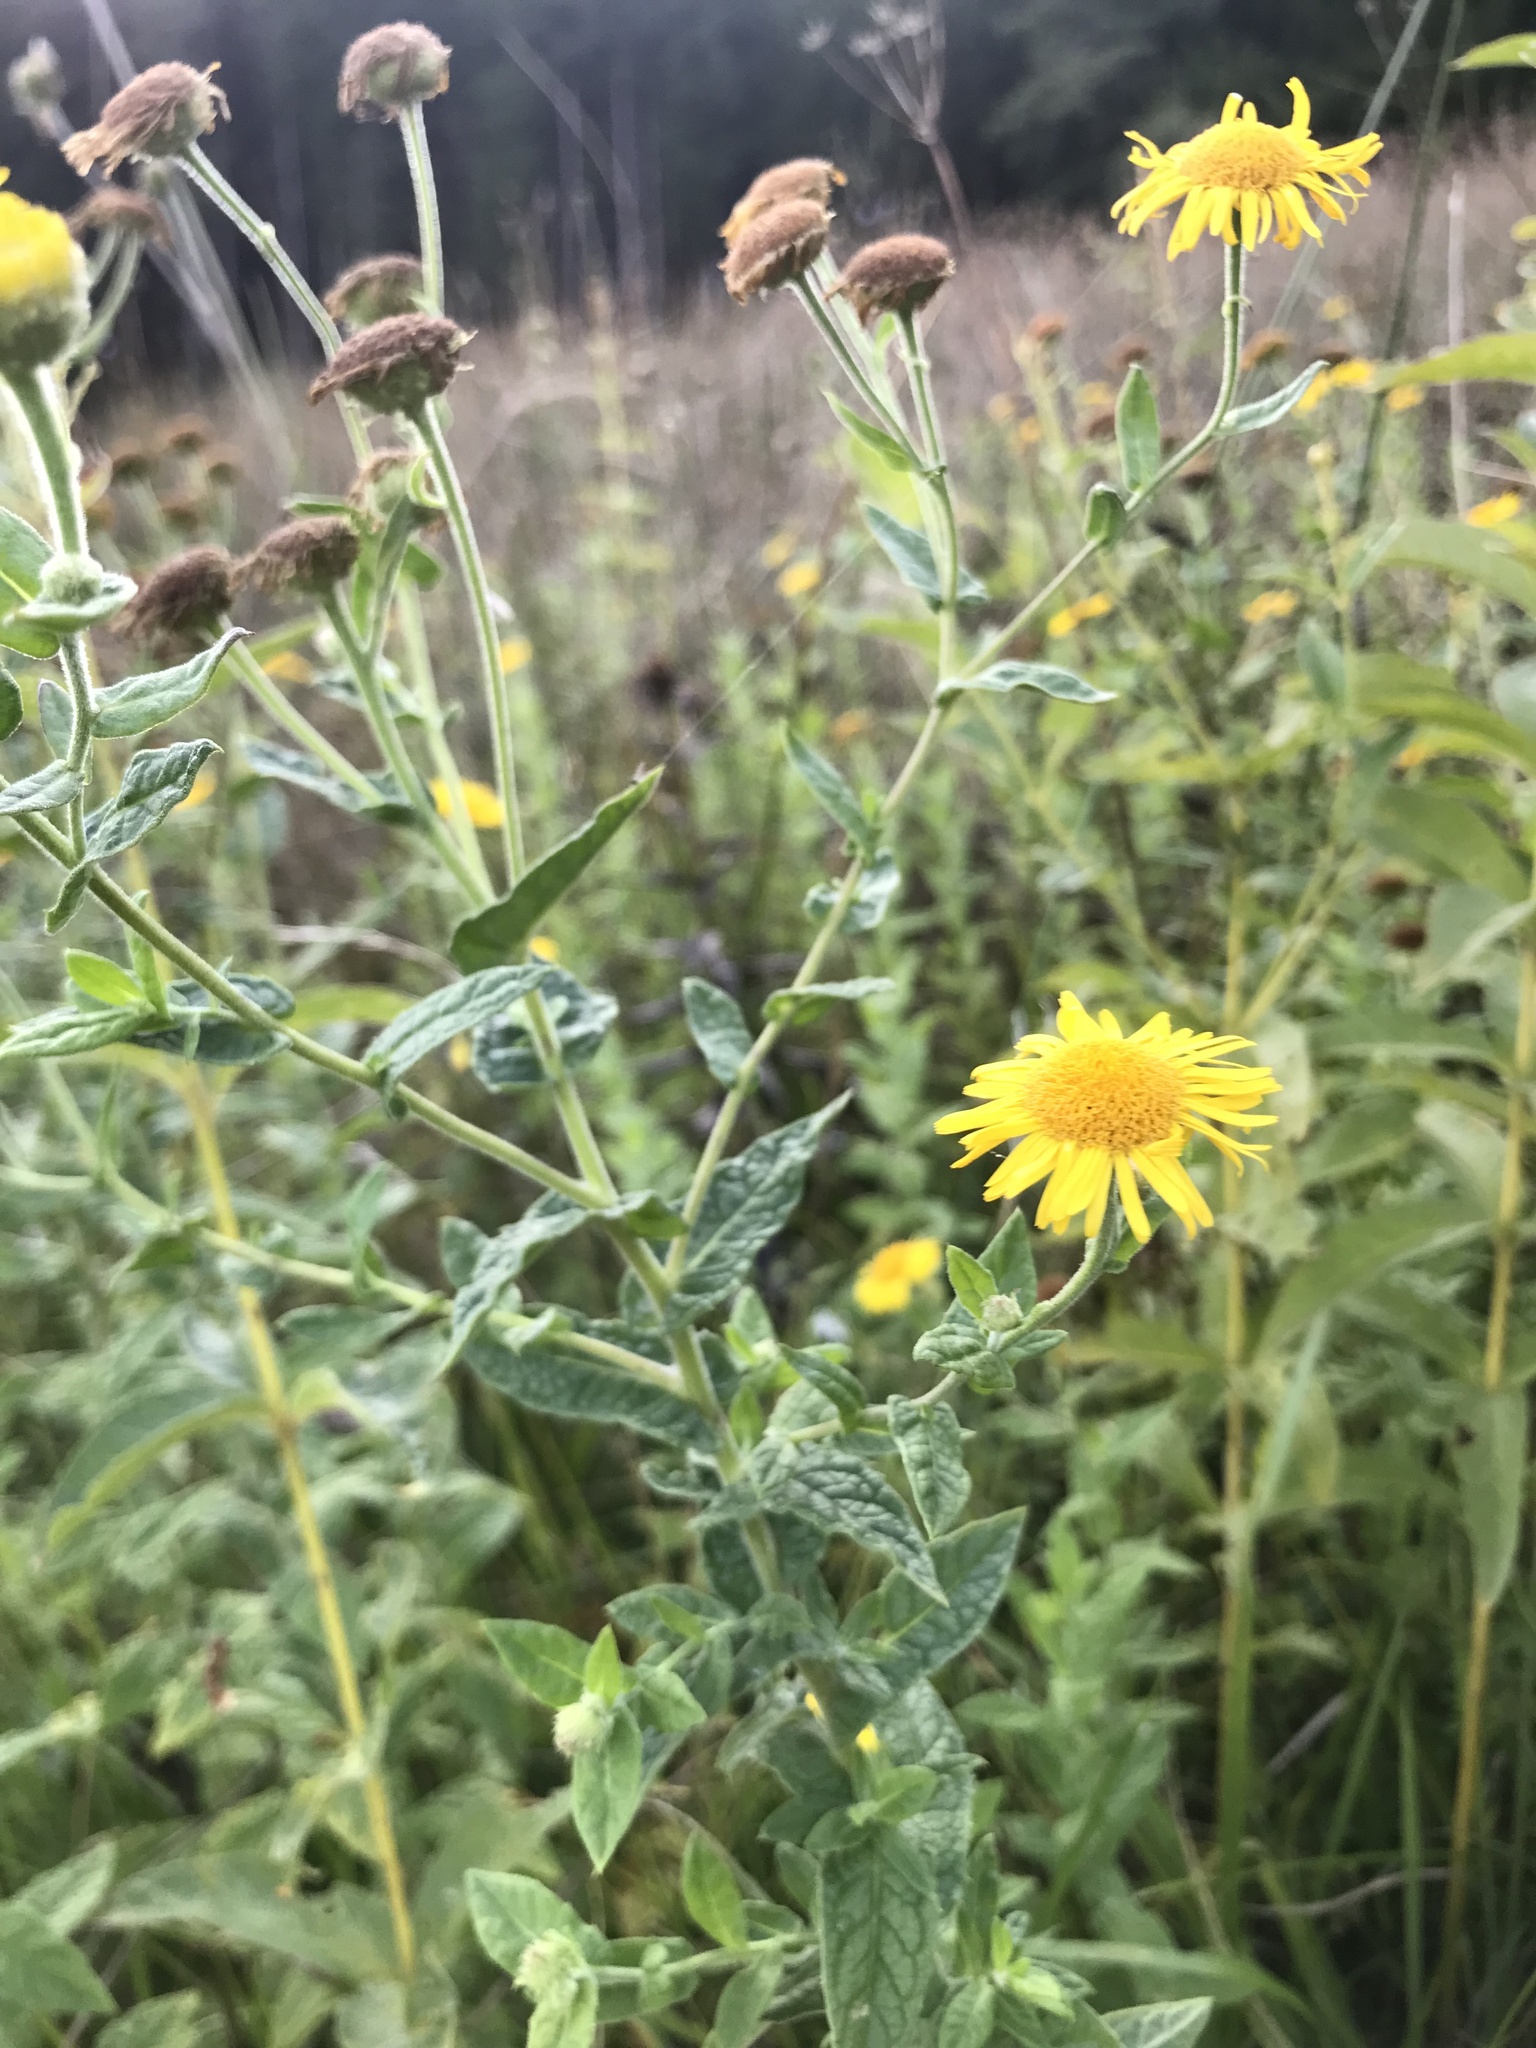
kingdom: Plantae
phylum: Tracheophyta
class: Magnoliopsida
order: Asterales
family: Asteraceae
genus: Pulicaria
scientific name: Pulicaria dysenterica
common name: Common fleabane
